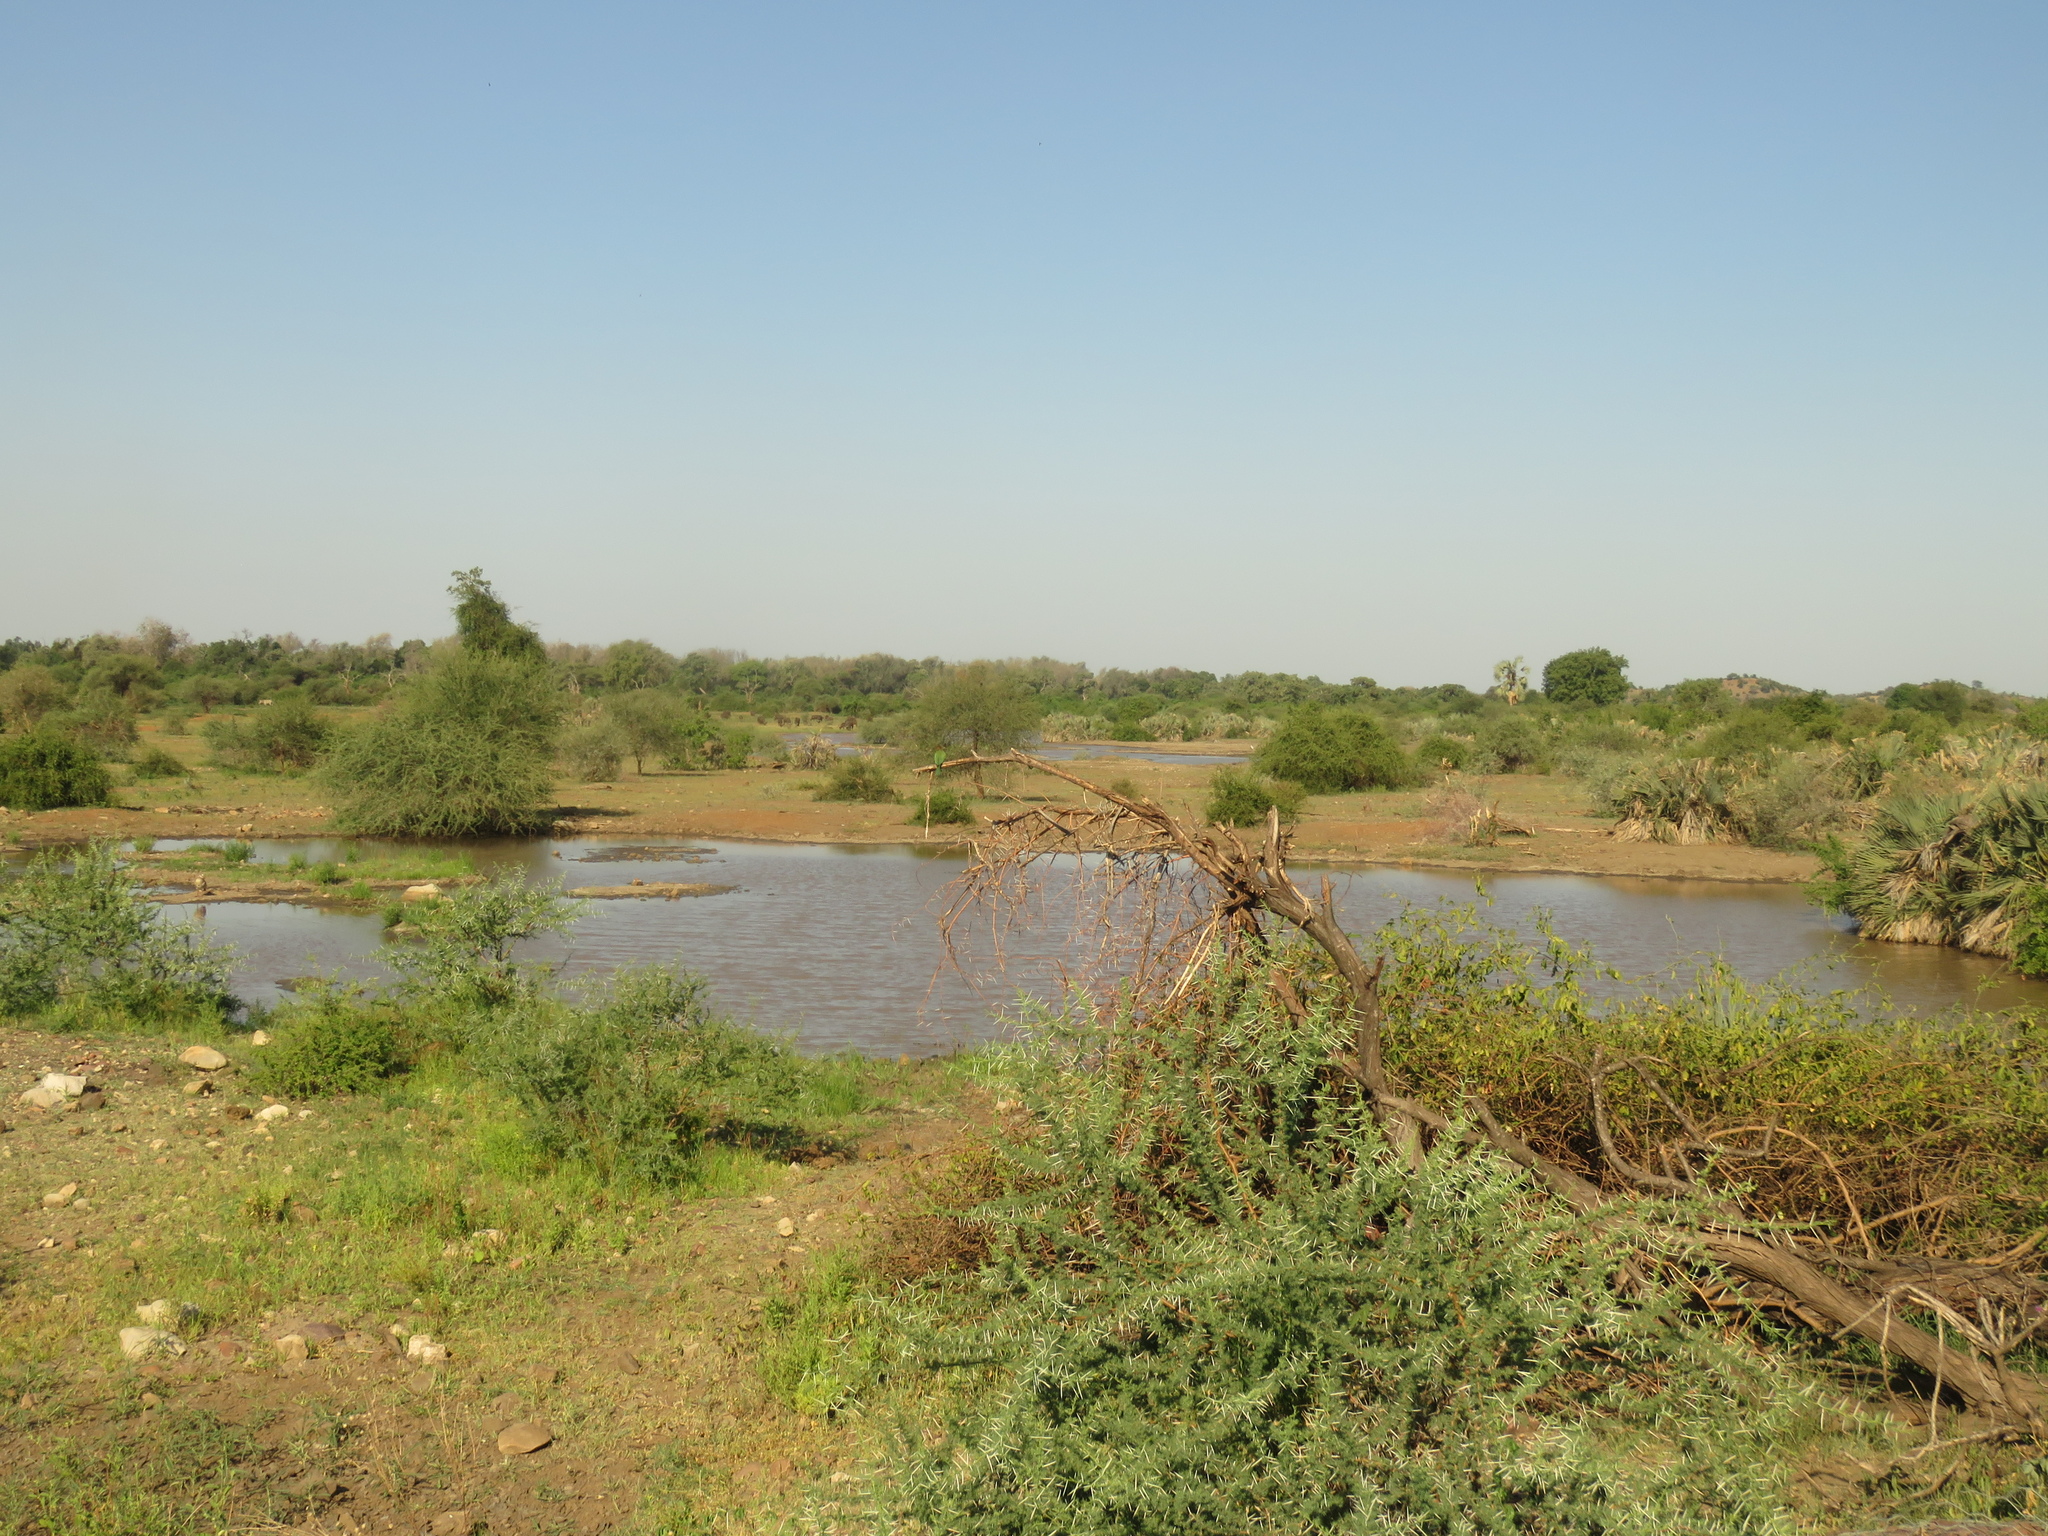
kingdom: Plantae
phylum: Tracheophyta
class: Magnoliopsida
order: Fabales
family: Fabaceae
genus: Vachellia
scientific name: Vachellia tortilis
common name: Umbrella thorn acacia
